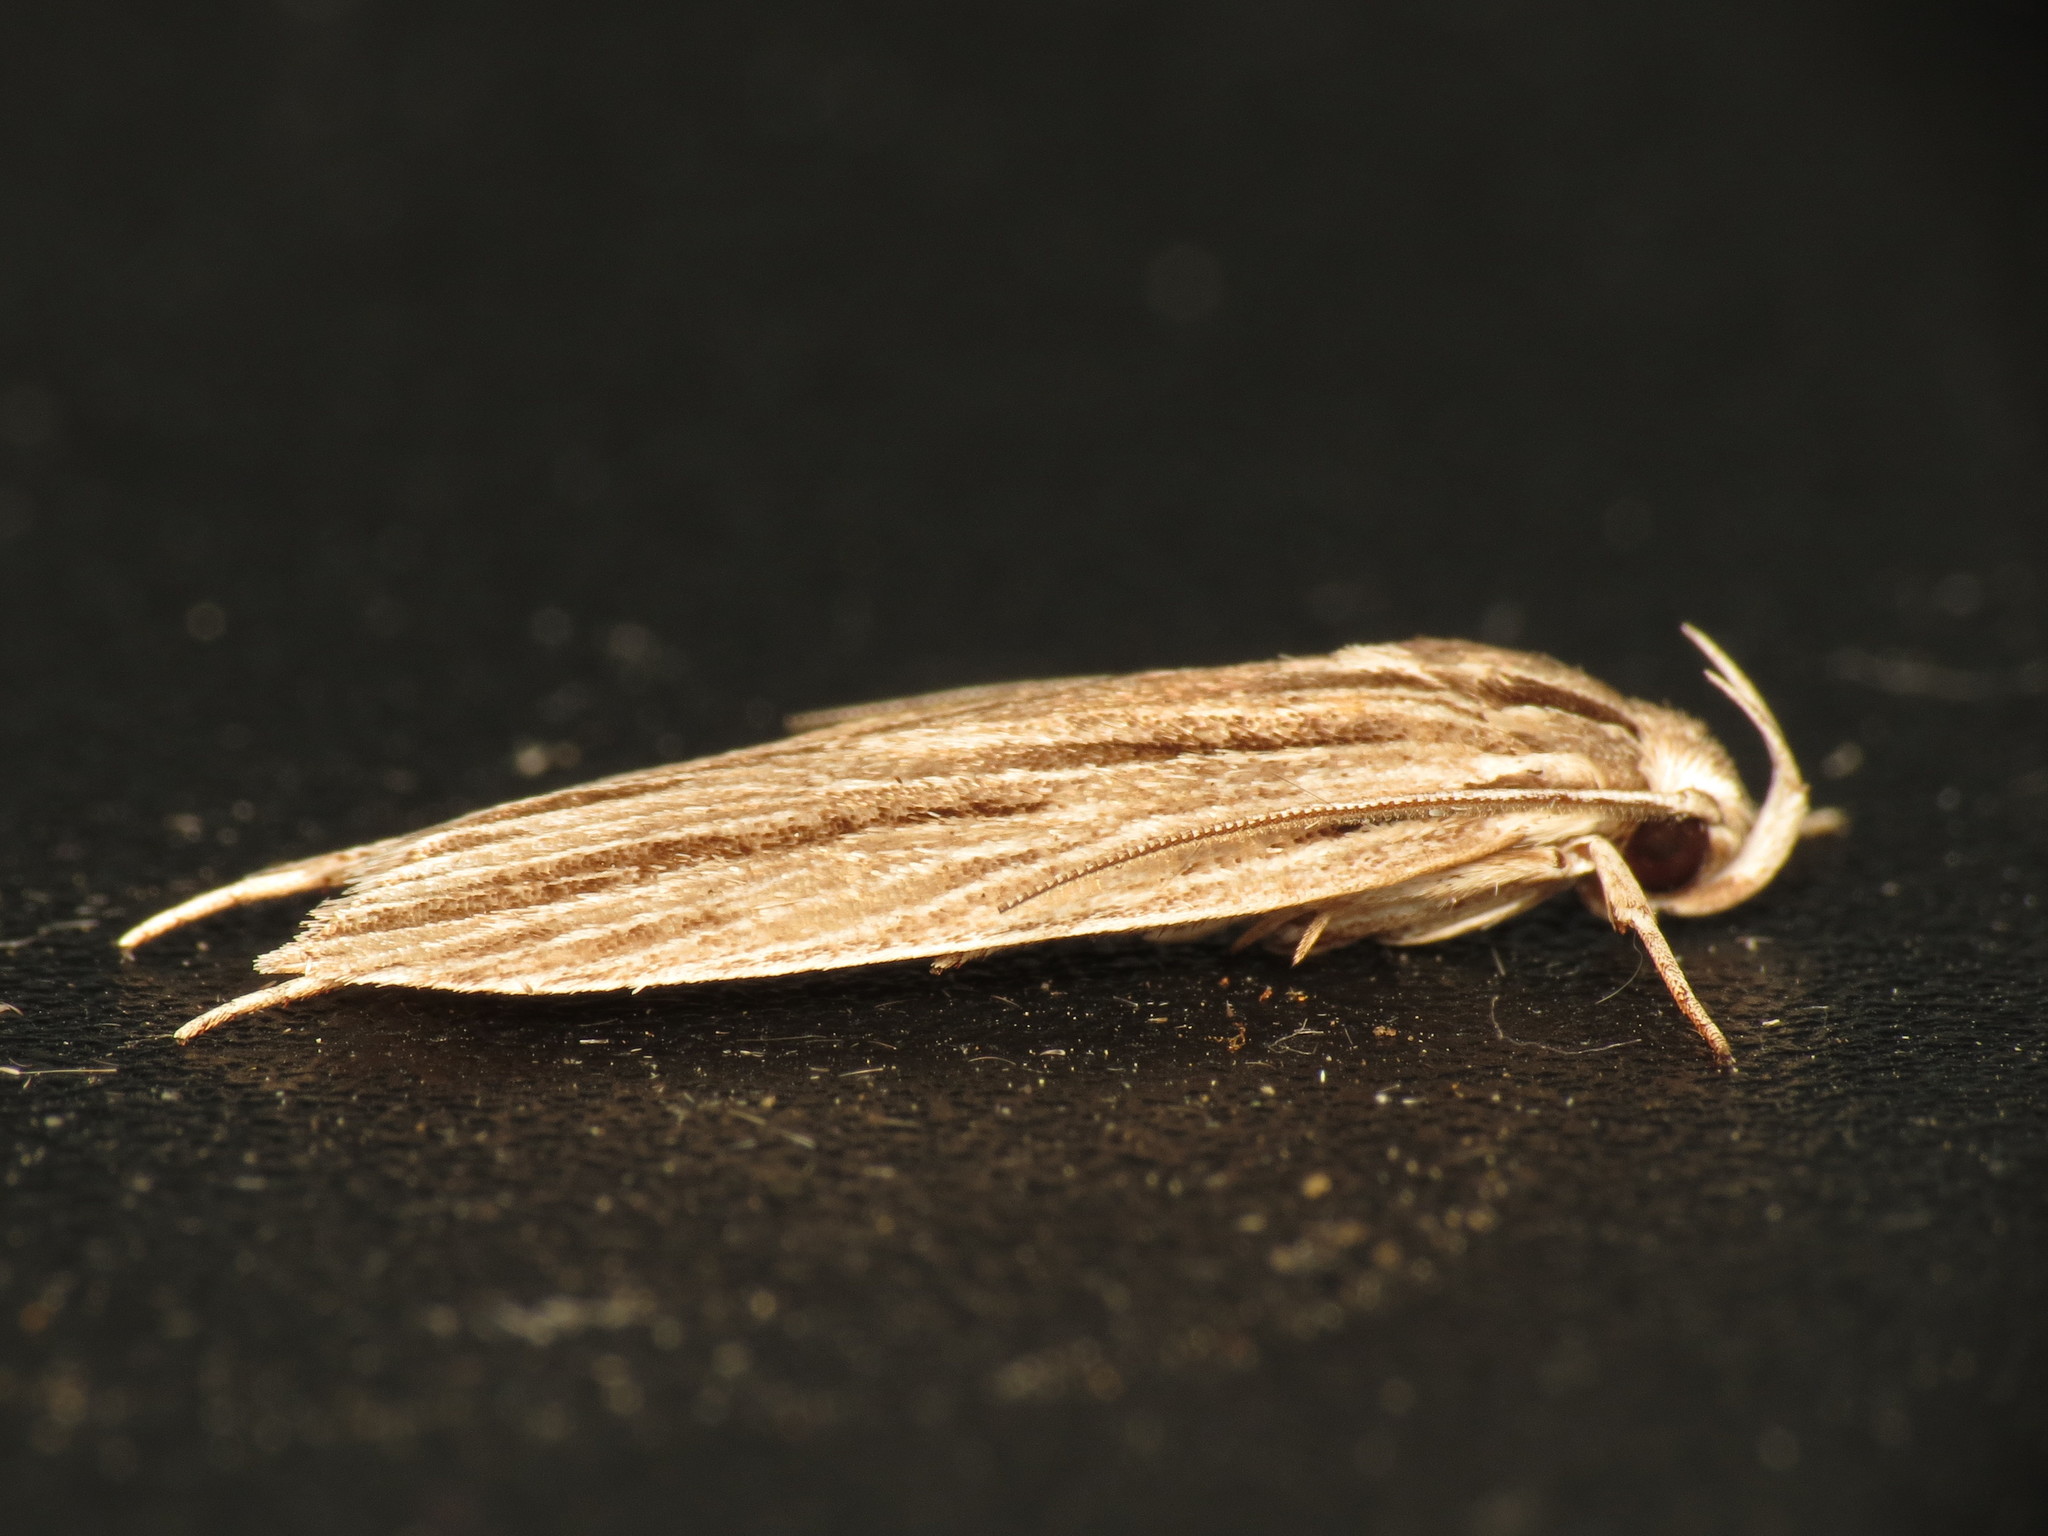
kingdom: Animalia
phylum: Arthropoda
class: Insecta
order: Lepidoptera
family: Xyloryctidae
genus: Leistarcha
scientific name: Leistarcha scitissimella
